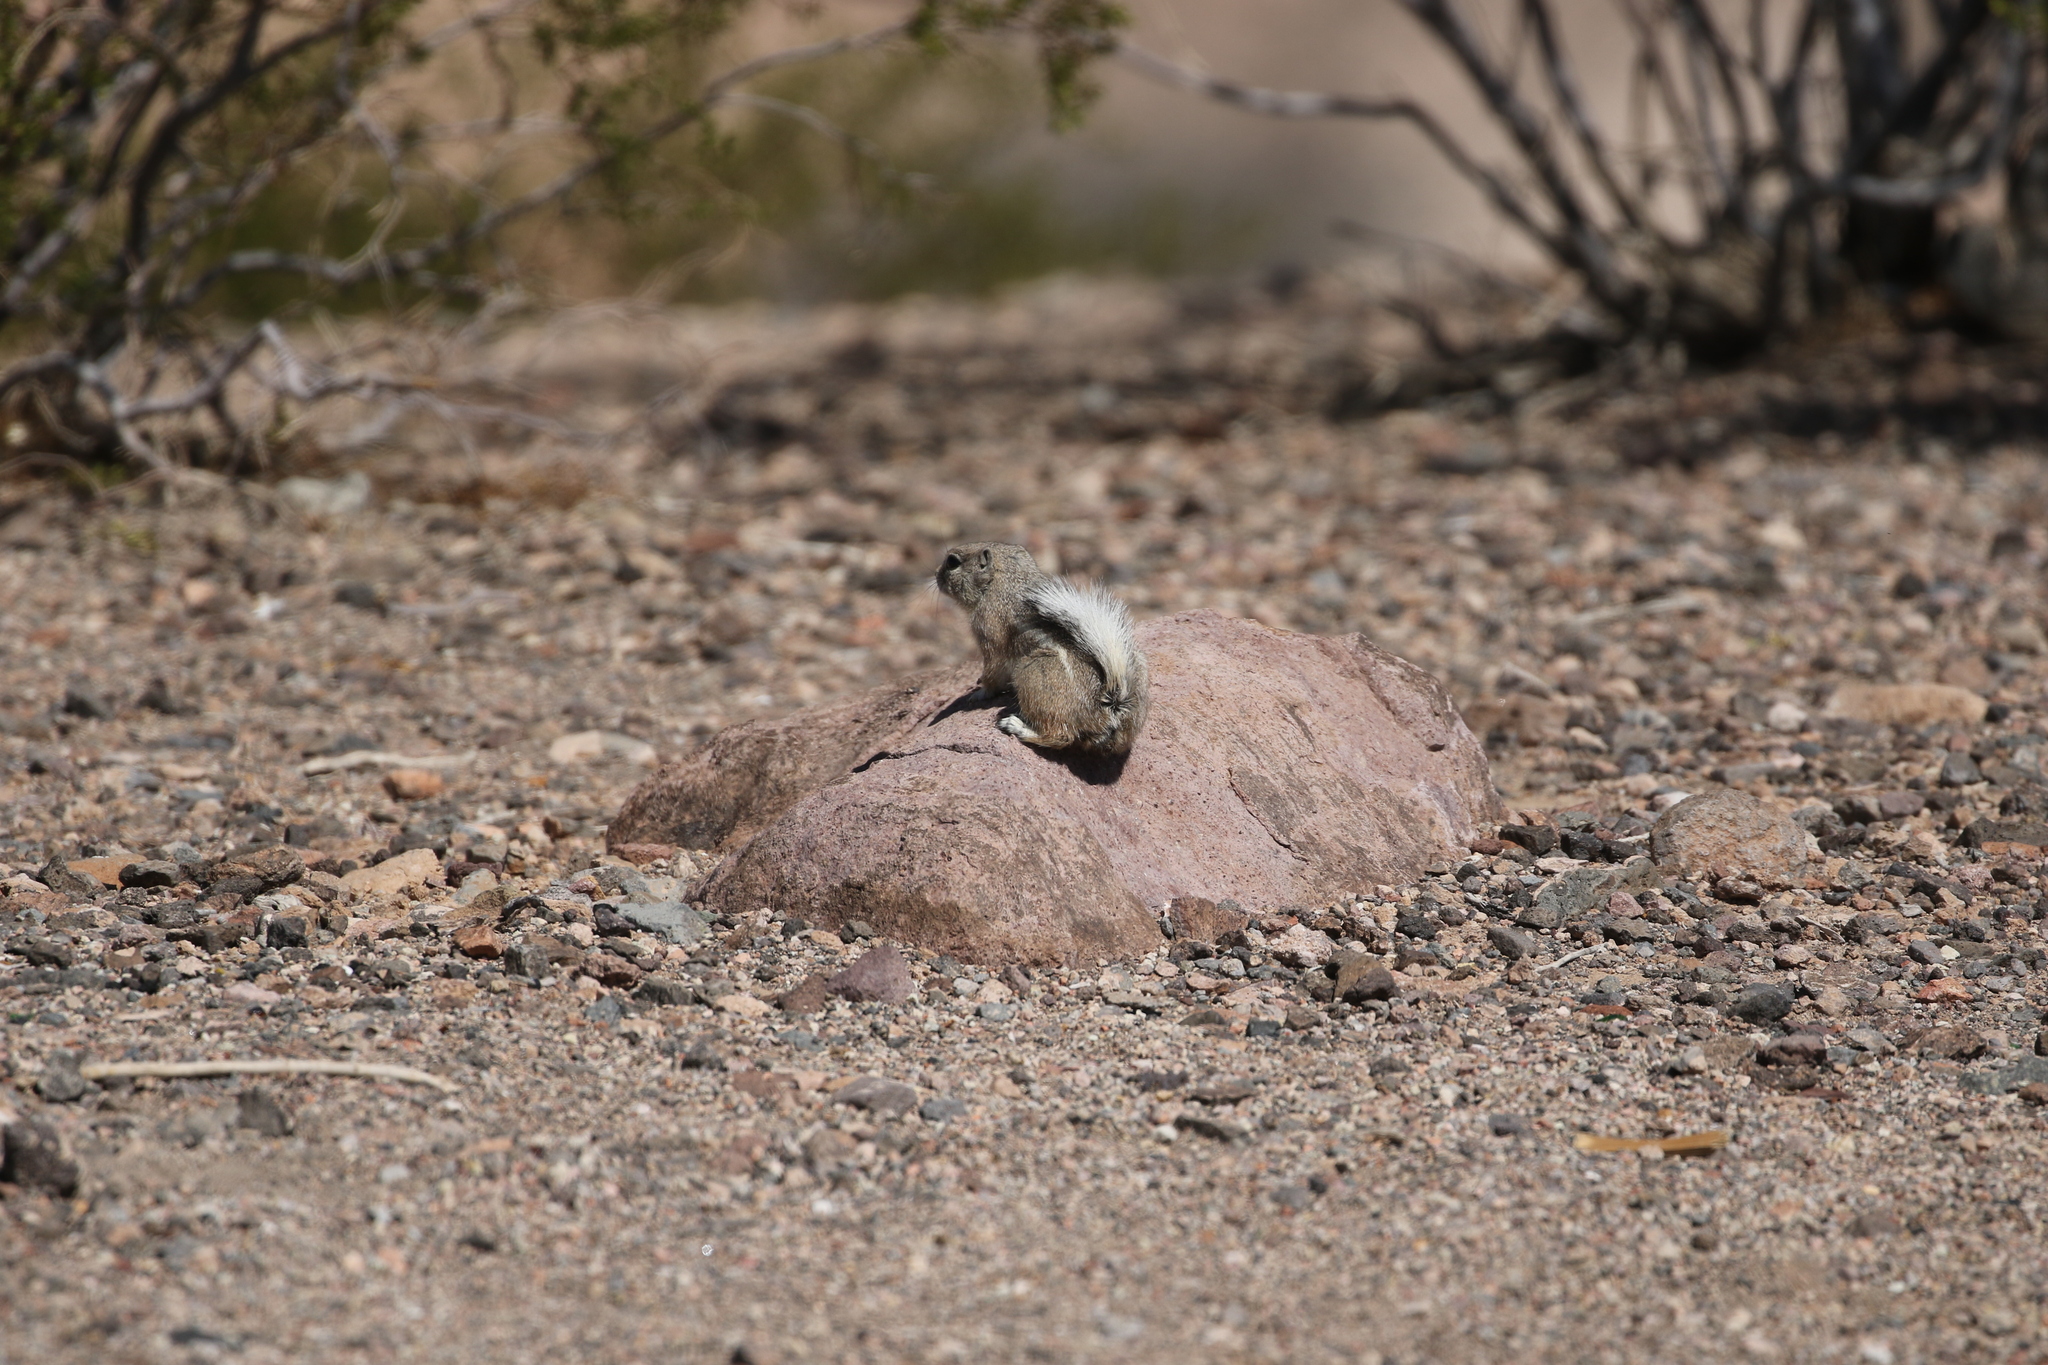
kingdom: Animalia
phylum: Chordata
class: Mammalia
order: Rodentia
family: Sciuridae
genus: Ammospermophilus
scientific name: Ammospermophilus leucurus
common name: White-tailed antelope squirrel
